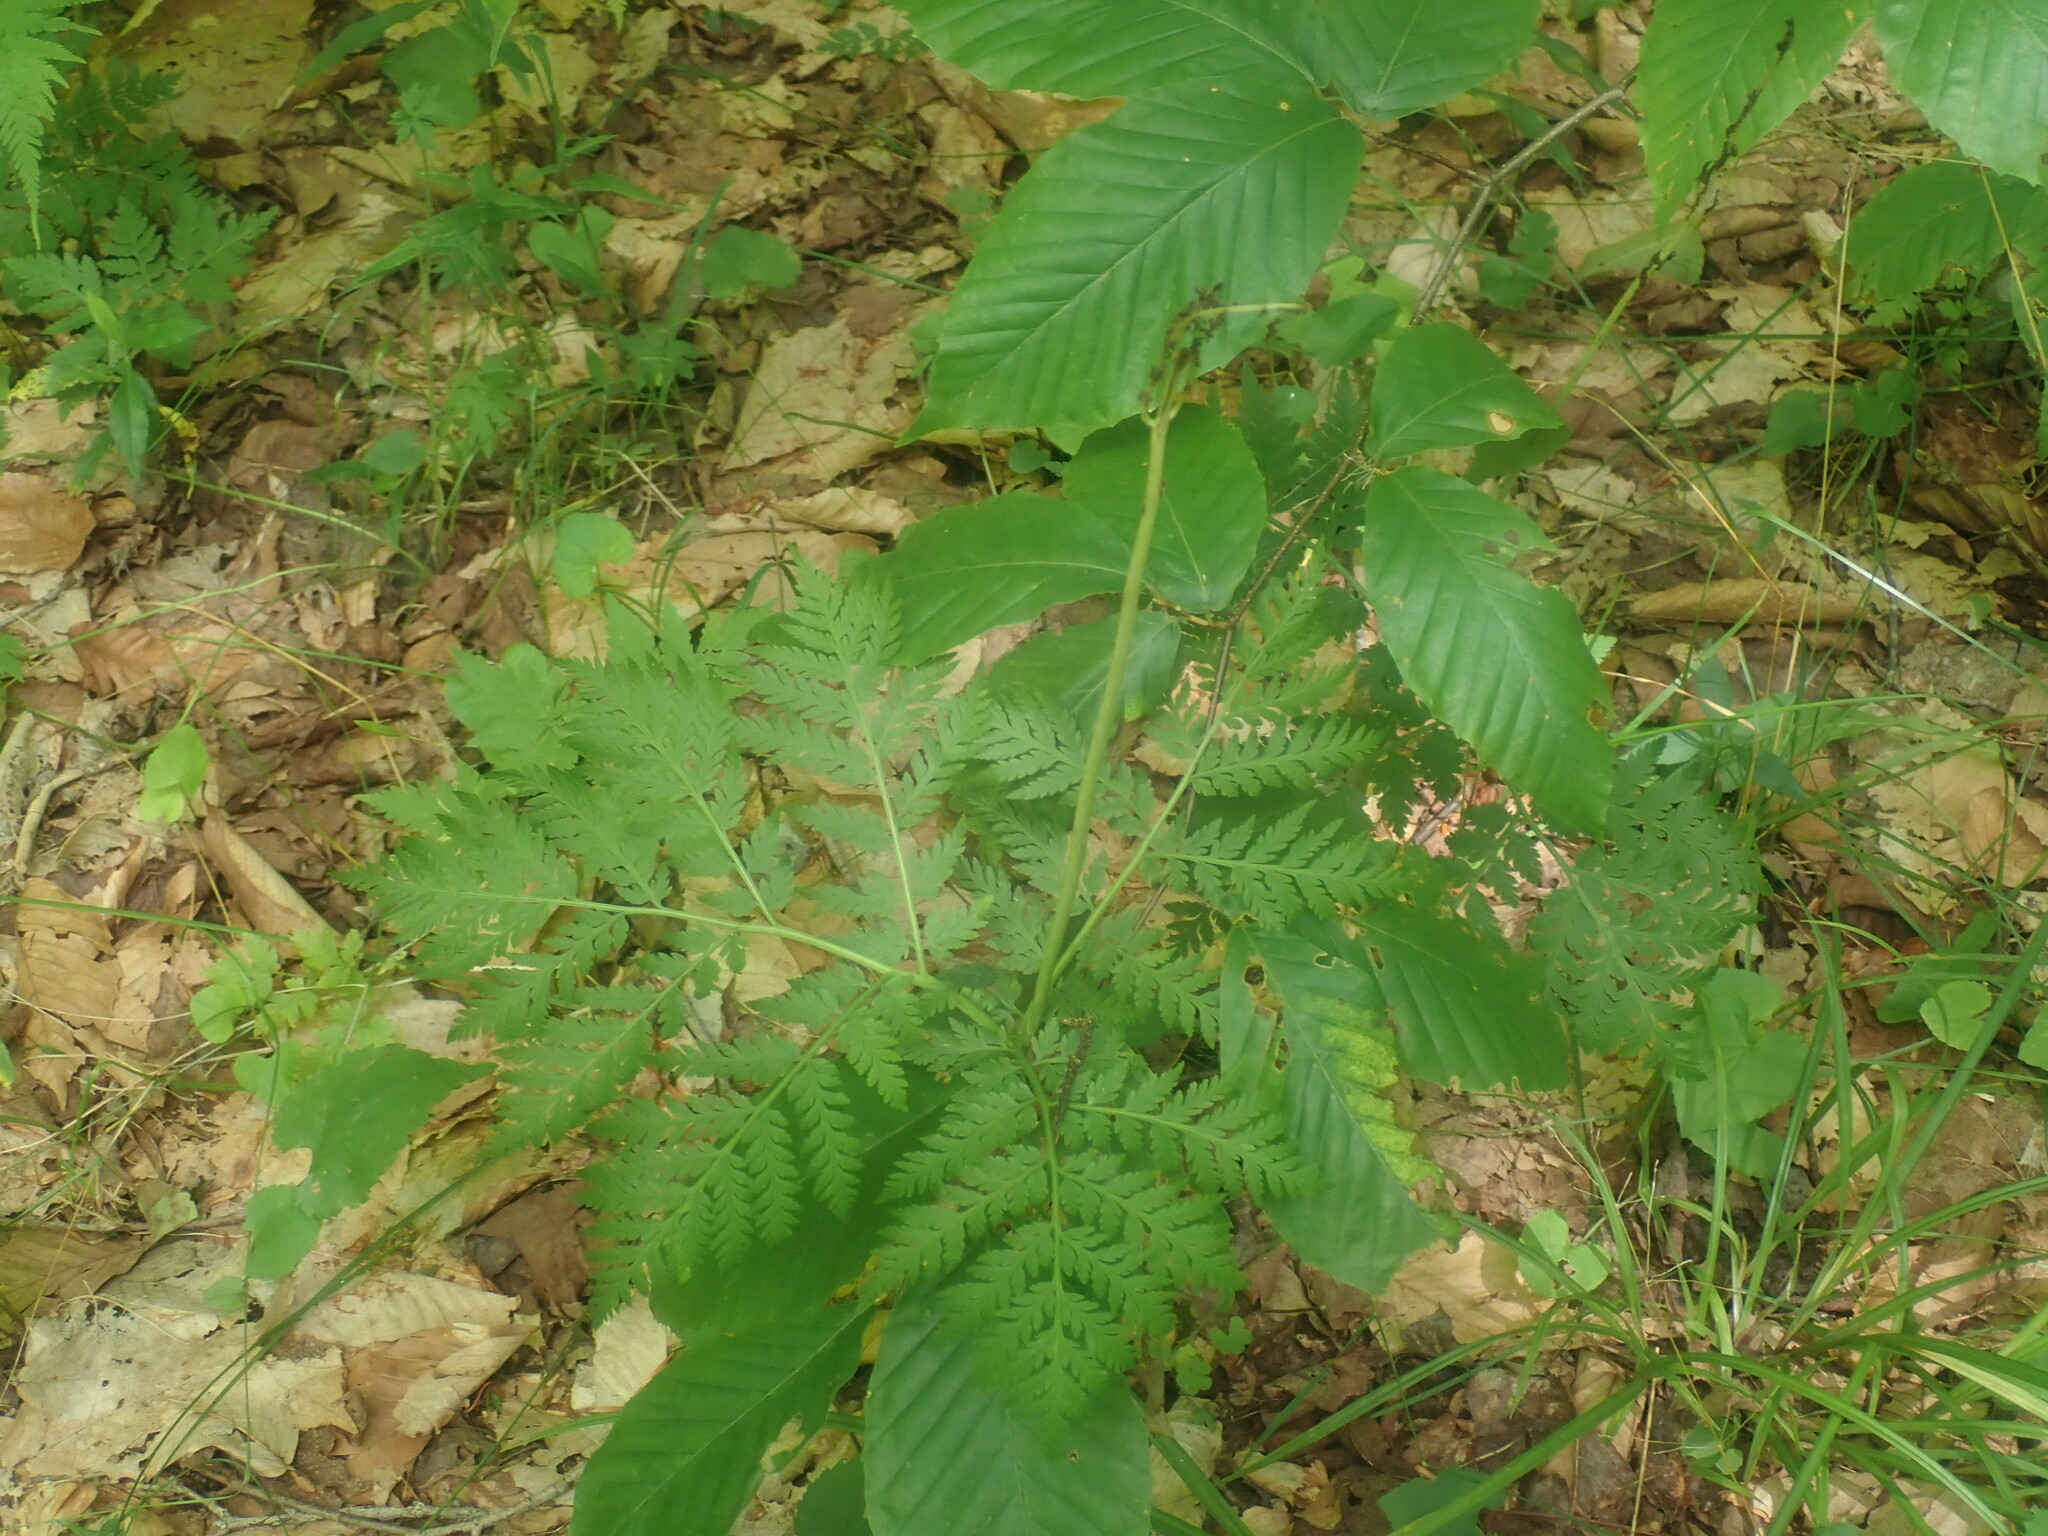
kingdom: Plantae
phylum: Tracheophyta
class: Polypodiopsida
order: Ophioglossales
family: Ophioglossaceae
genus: Botrypus
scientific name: Botrypus virginianus
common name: Common grapefern
